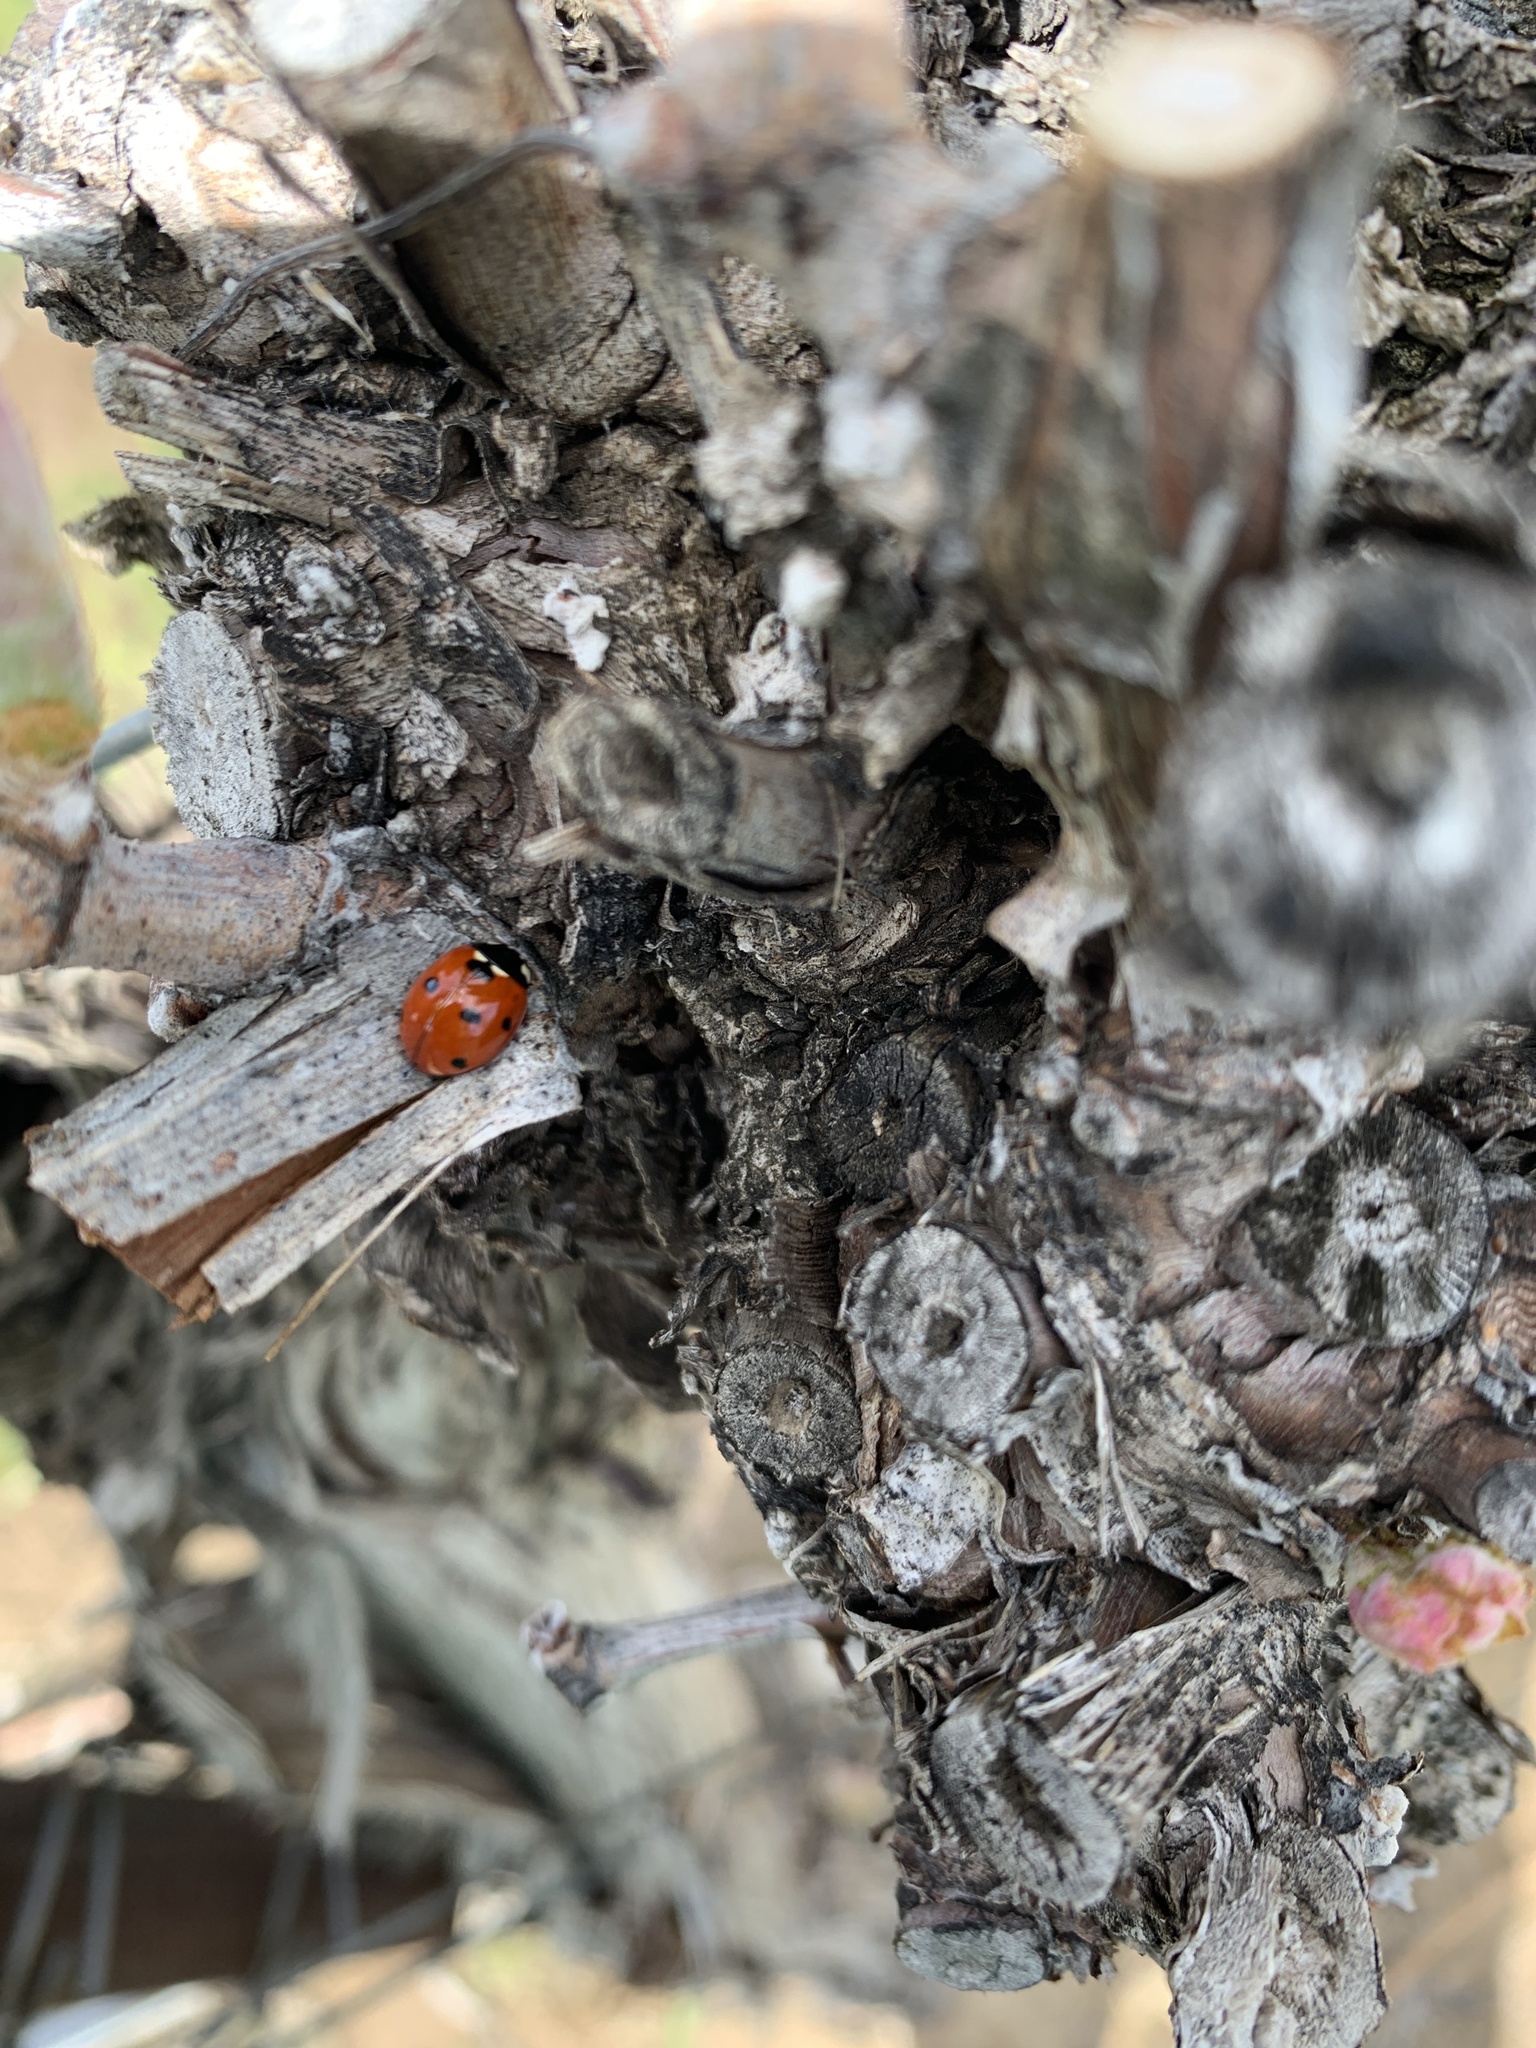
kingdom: Animalia
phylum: Arthropoda
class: Insecta
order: Coleoptera
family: Coccinellidae
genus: Coccinella
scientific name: Coccinella septempunctata
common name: Sevenspotted lady beetle
